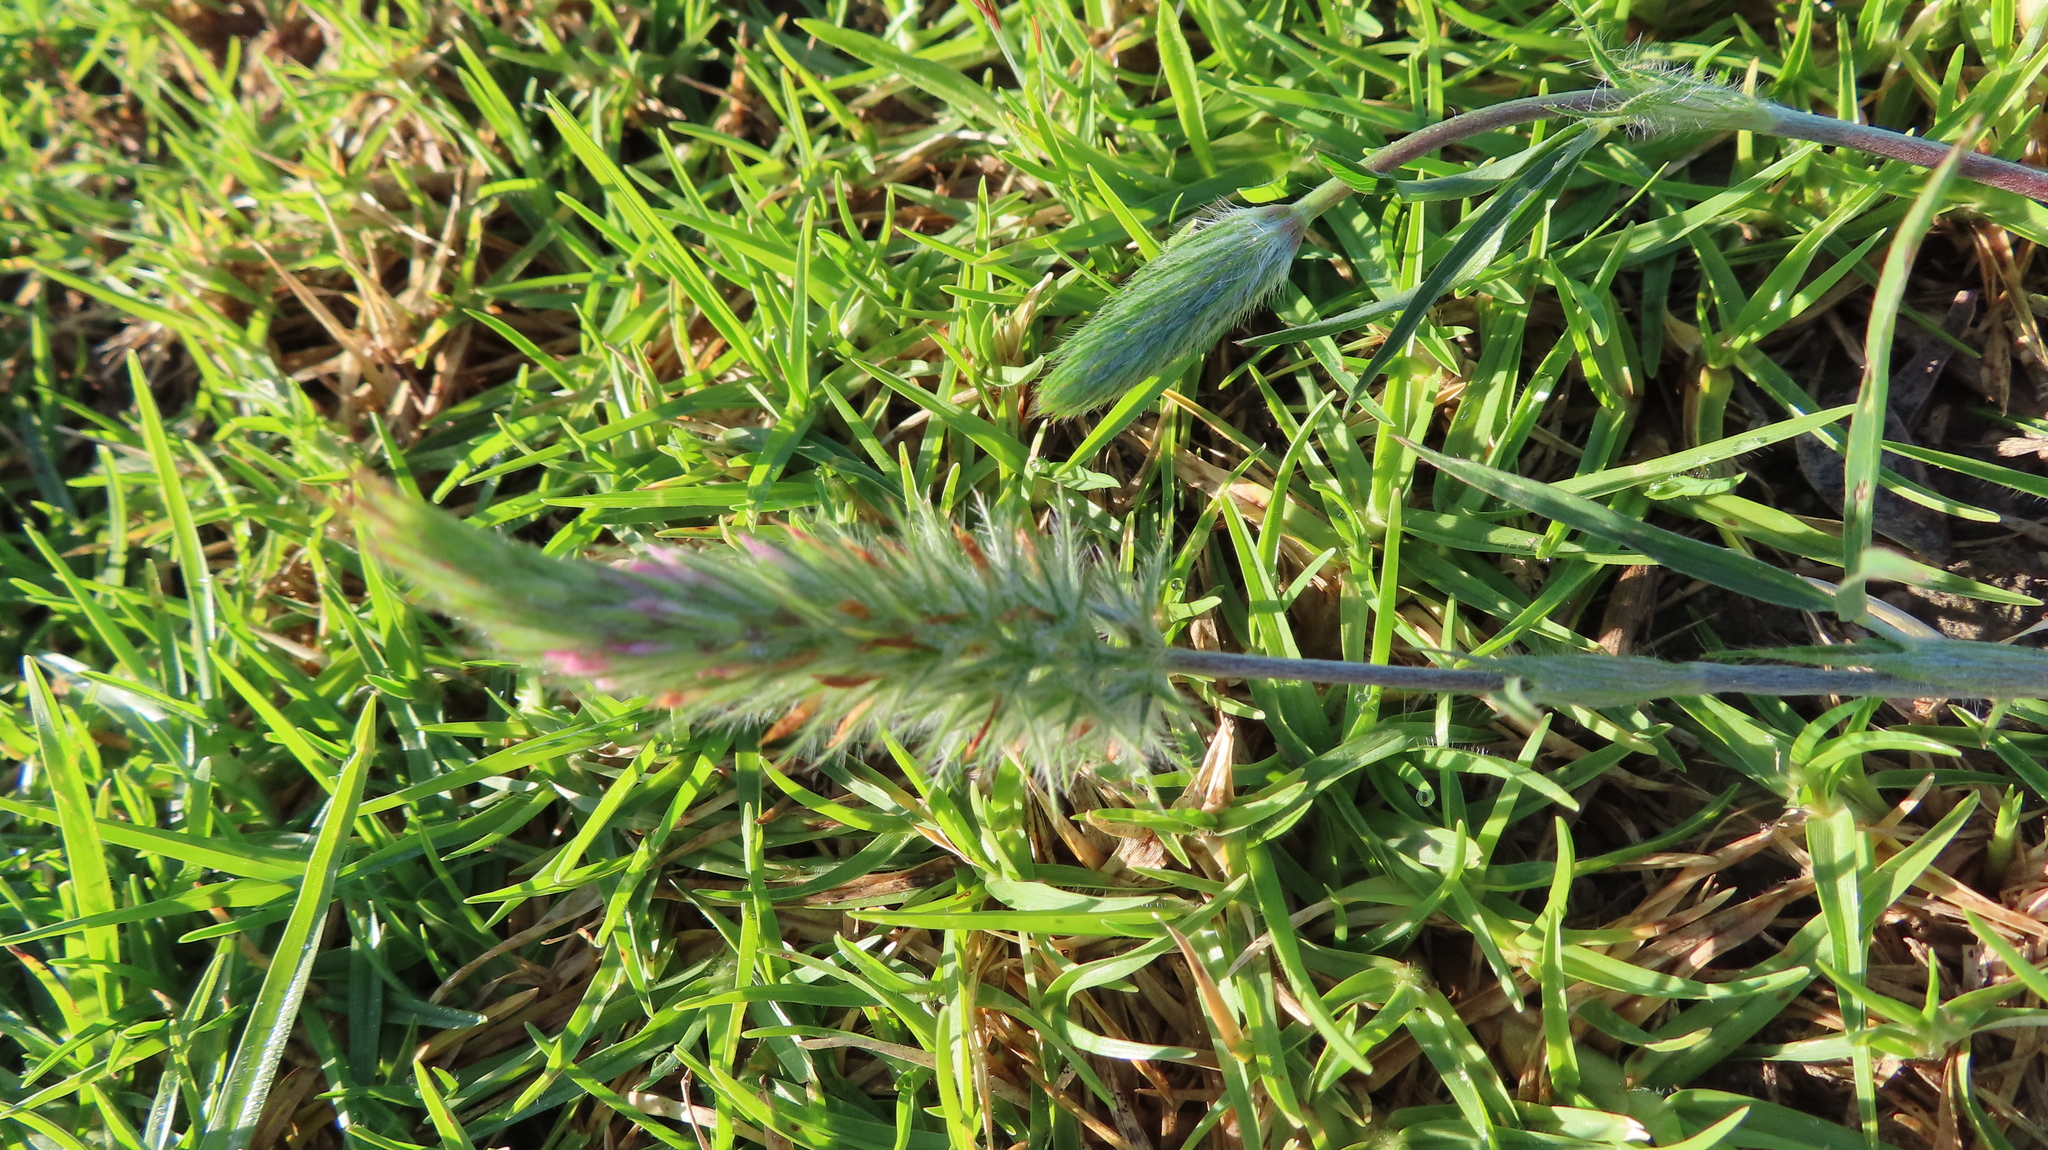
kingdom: Plantae
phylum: Tracheophyta
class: Magnoliopsida
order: Fabales
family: Fabaceae
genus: Trifolium
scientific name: Trifolium angustifolium
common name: Narrow clover
